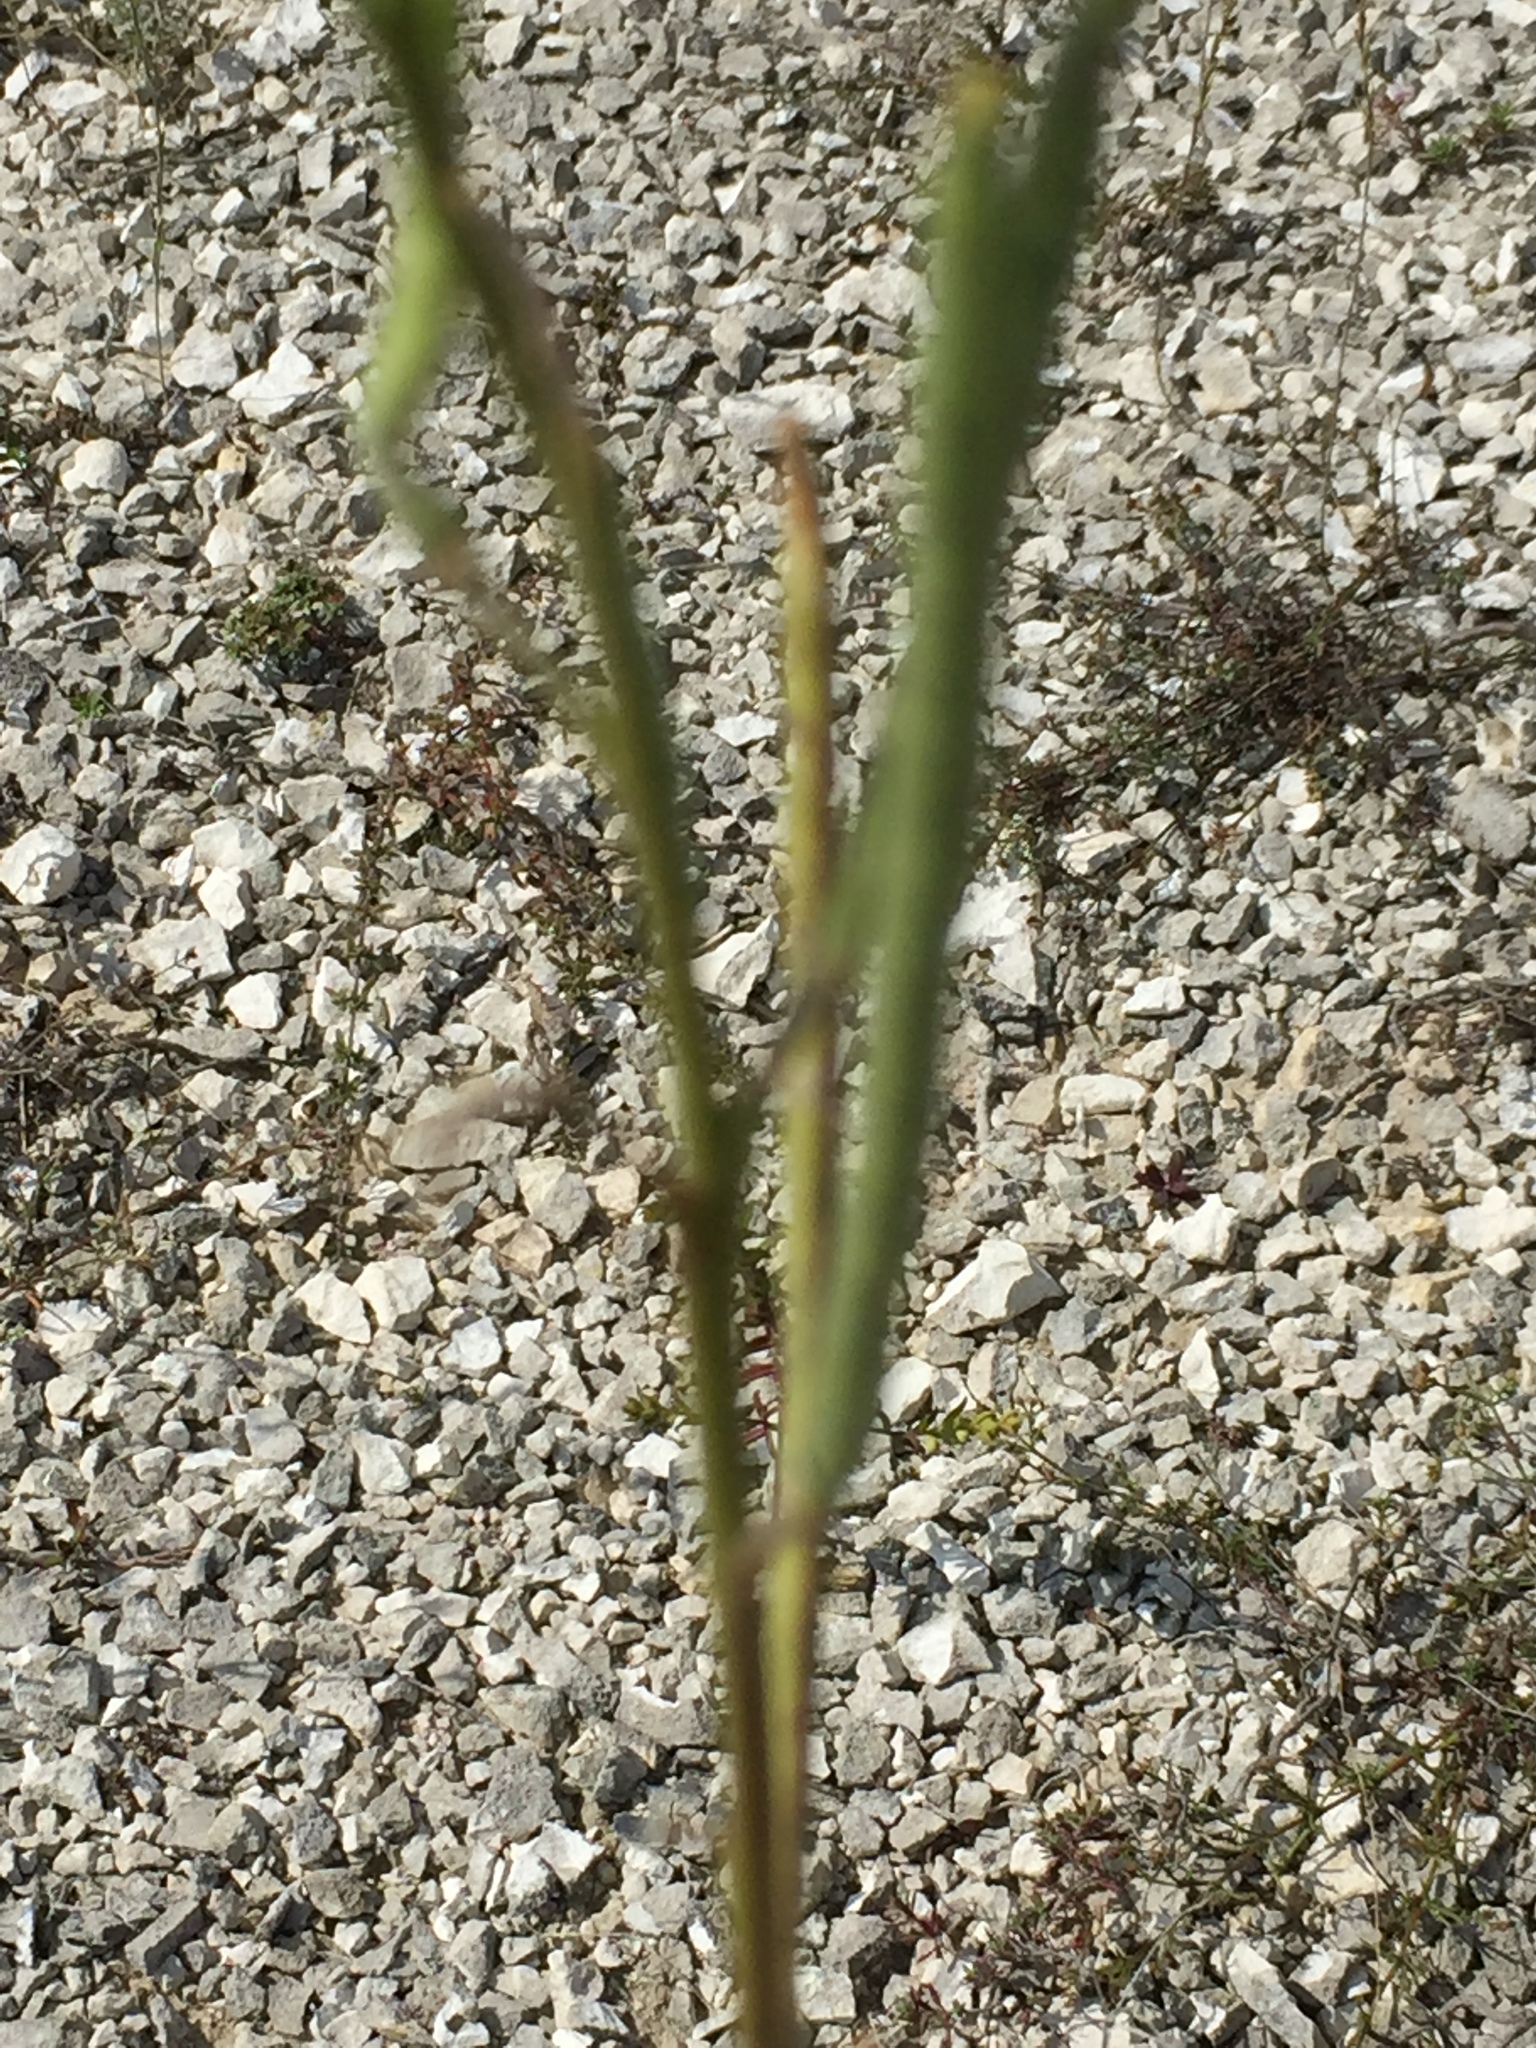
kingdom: Plantae
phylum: Tracheophyta
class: Magnoliopsida
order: Brassicales
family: Brassicaceae
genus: Matthiola
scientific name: Matthiola fragrans
